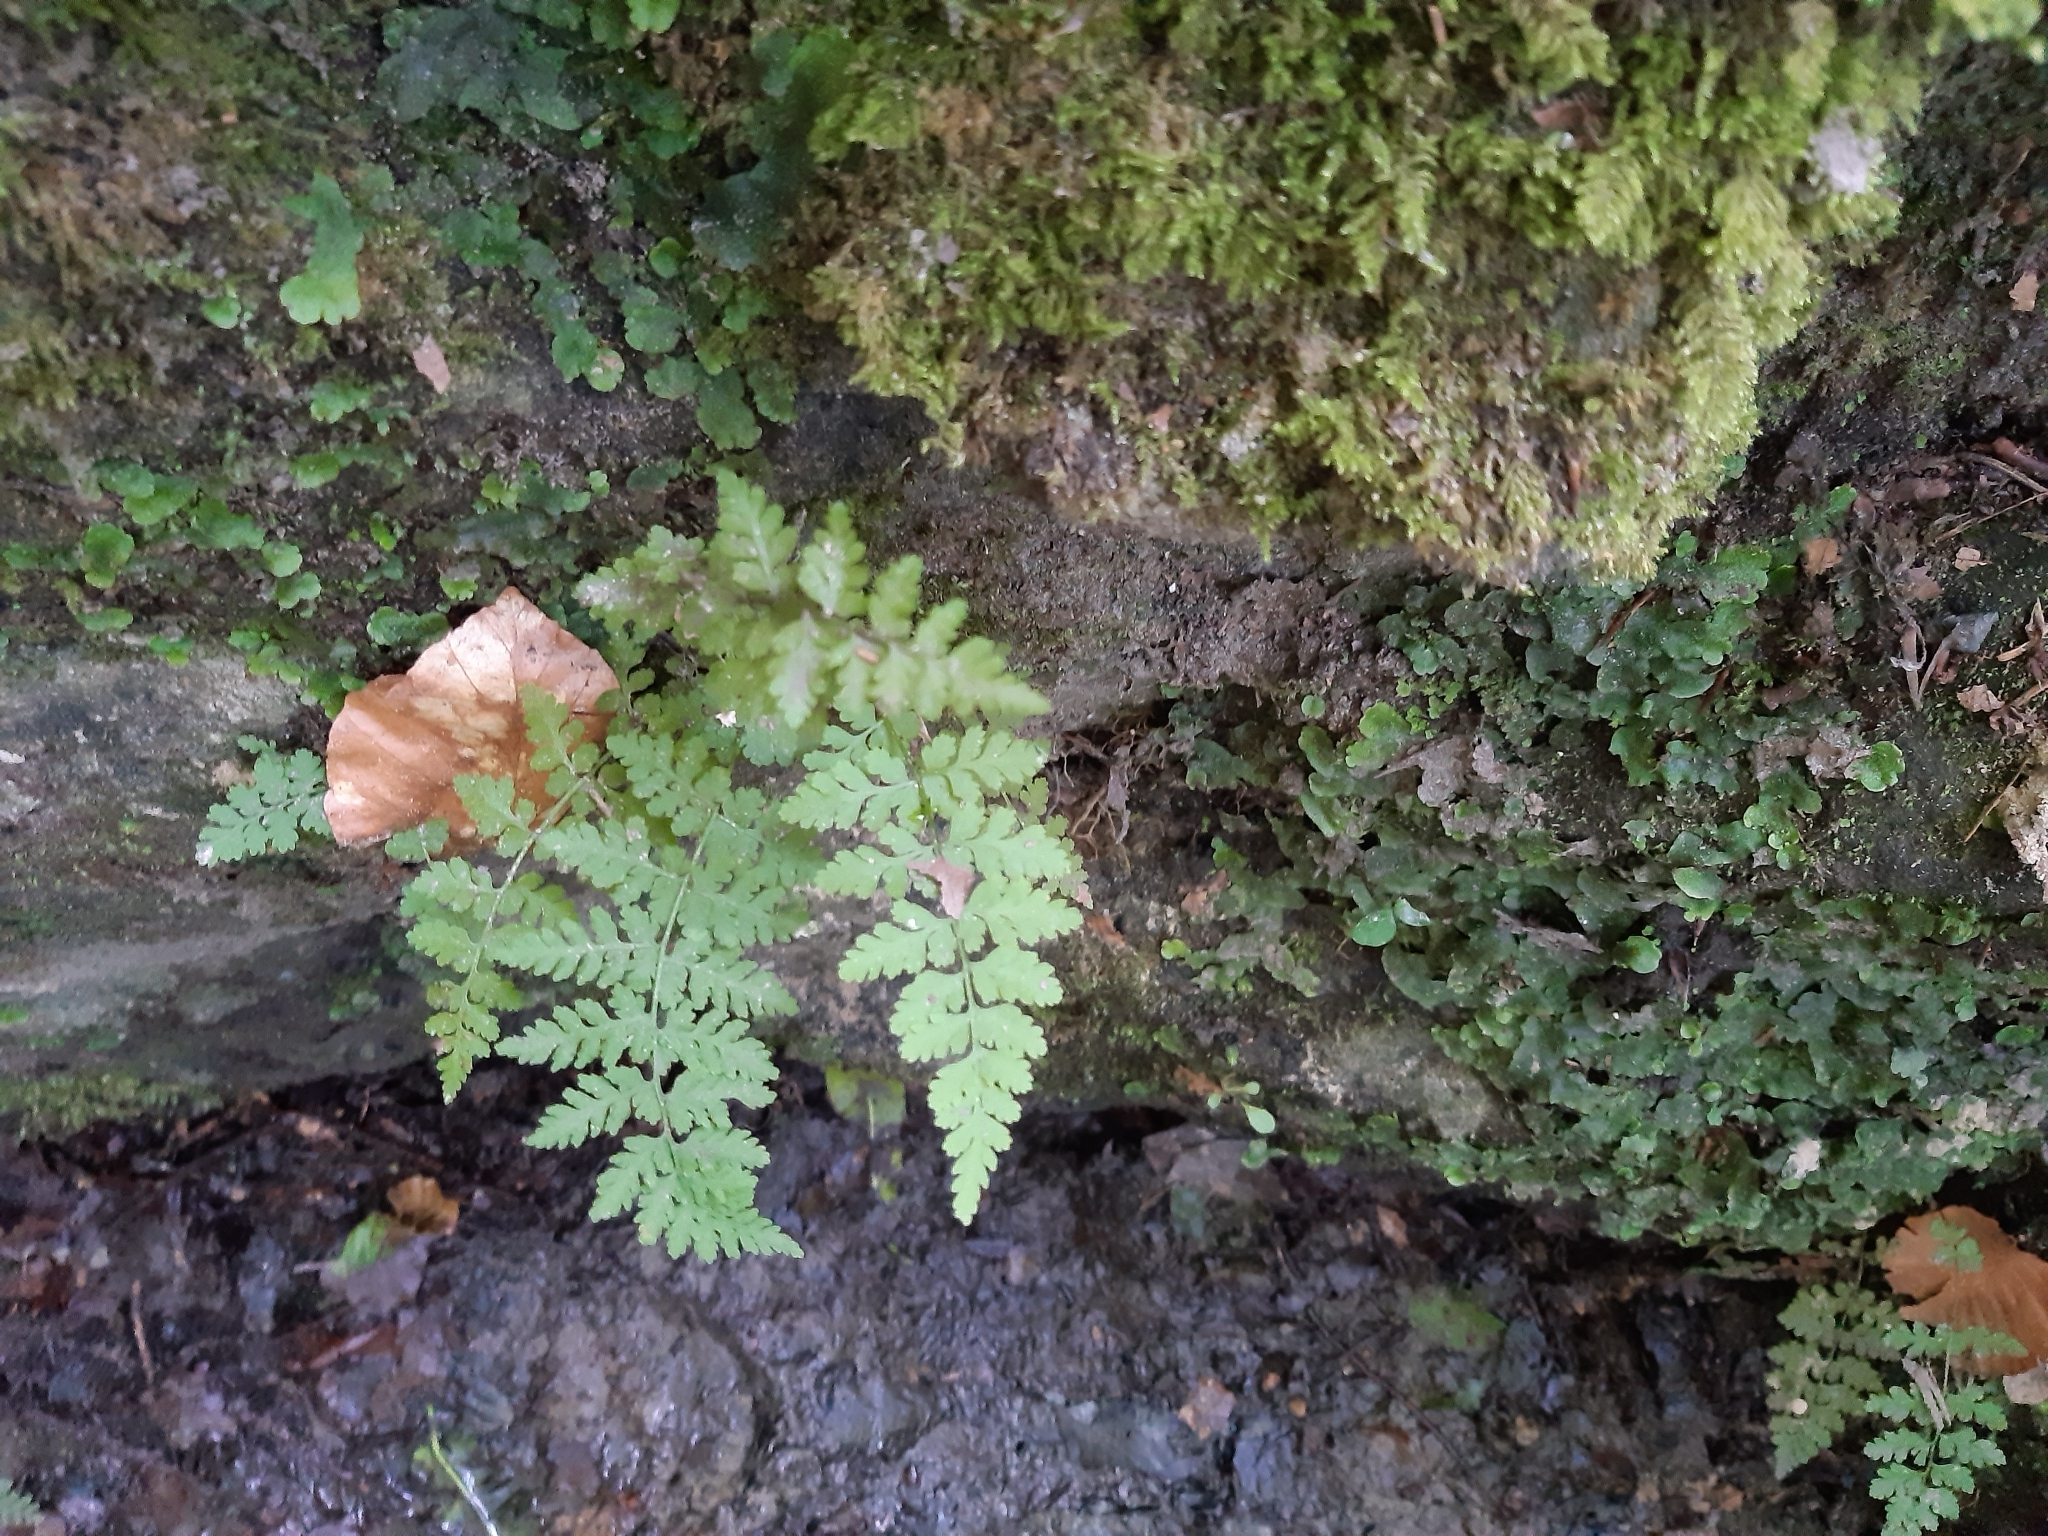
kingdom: Plantae
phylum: Tracheophyta
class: Polypodiopsida
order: Polypodiales
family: Cystopteridaceae
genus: Cystopteris
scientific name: Cystopteris fragilis
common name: Brittle bladder fern
